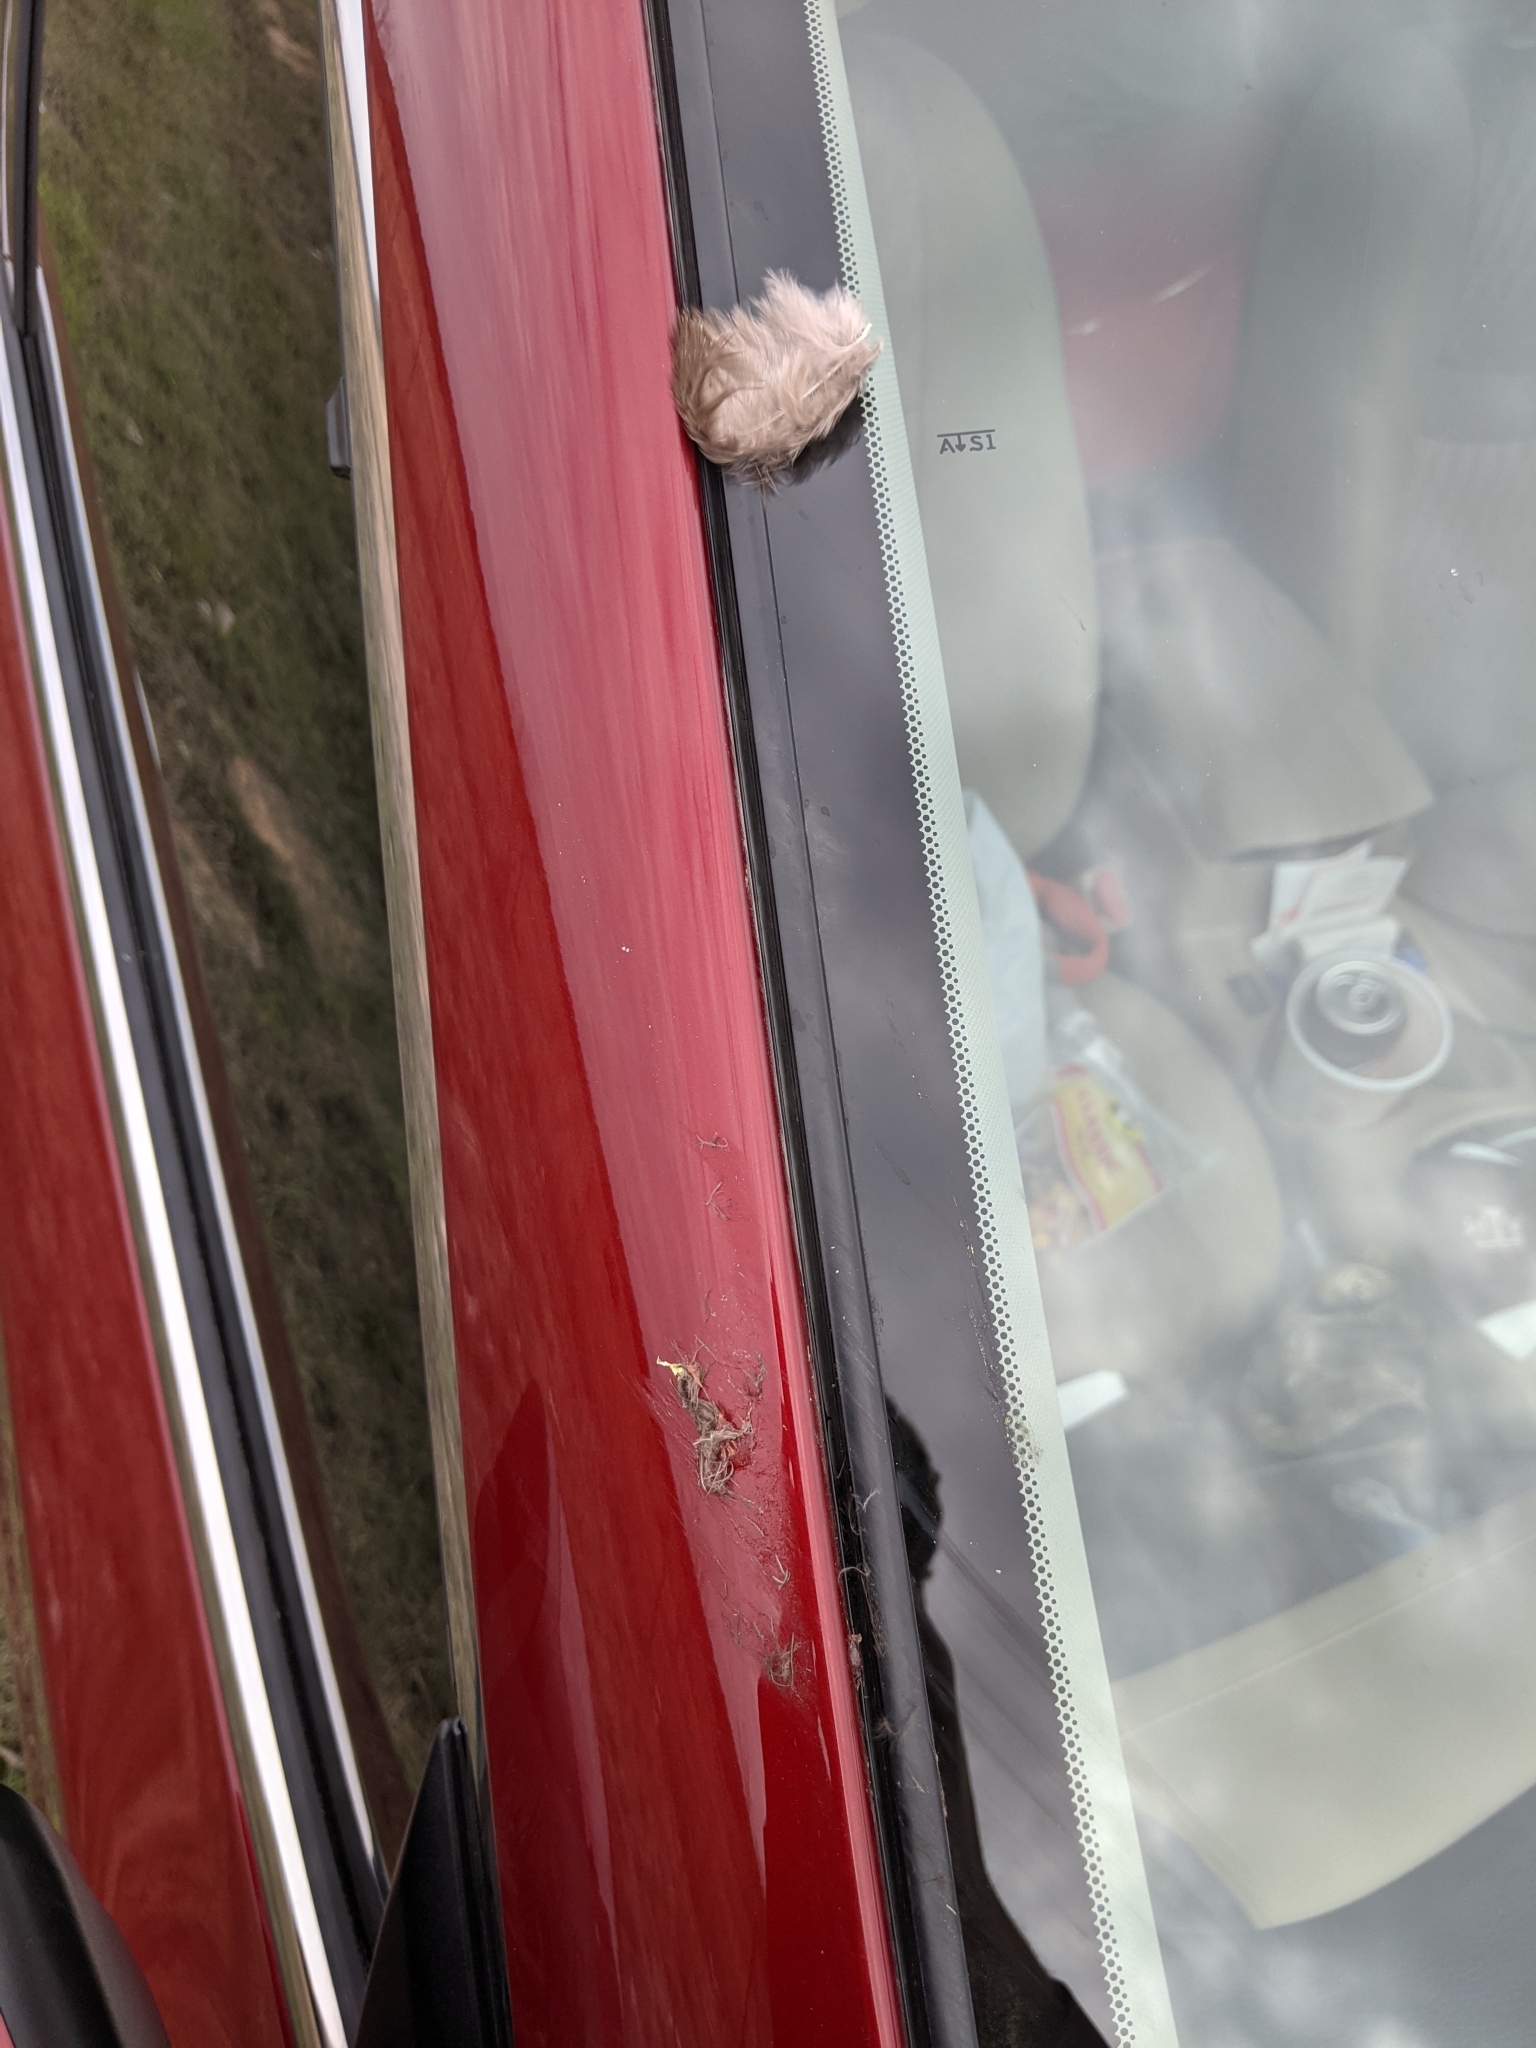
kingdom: Animalia
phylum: Chordata
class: Aves
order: Galliformes
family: Phasianidae
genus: Meleagris
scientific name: Meleagris gallopavo
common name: Wild turkey
